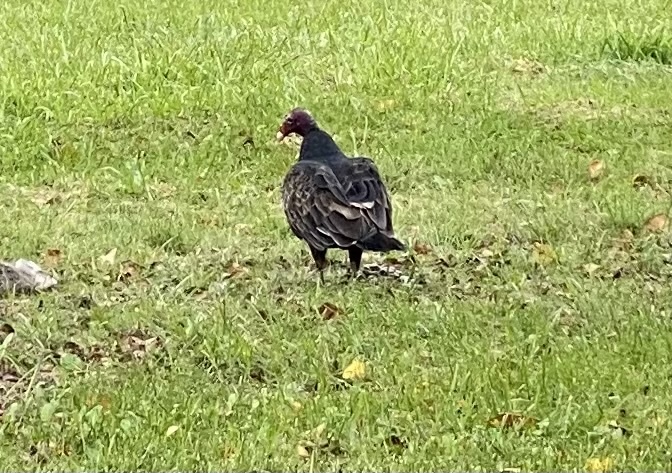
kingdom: Animalia
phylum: Chordata
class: Aves
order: Accipitriformes
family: Cathartidae
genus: Cathartes
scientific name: Cathartes aura
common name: Turkey vulture
